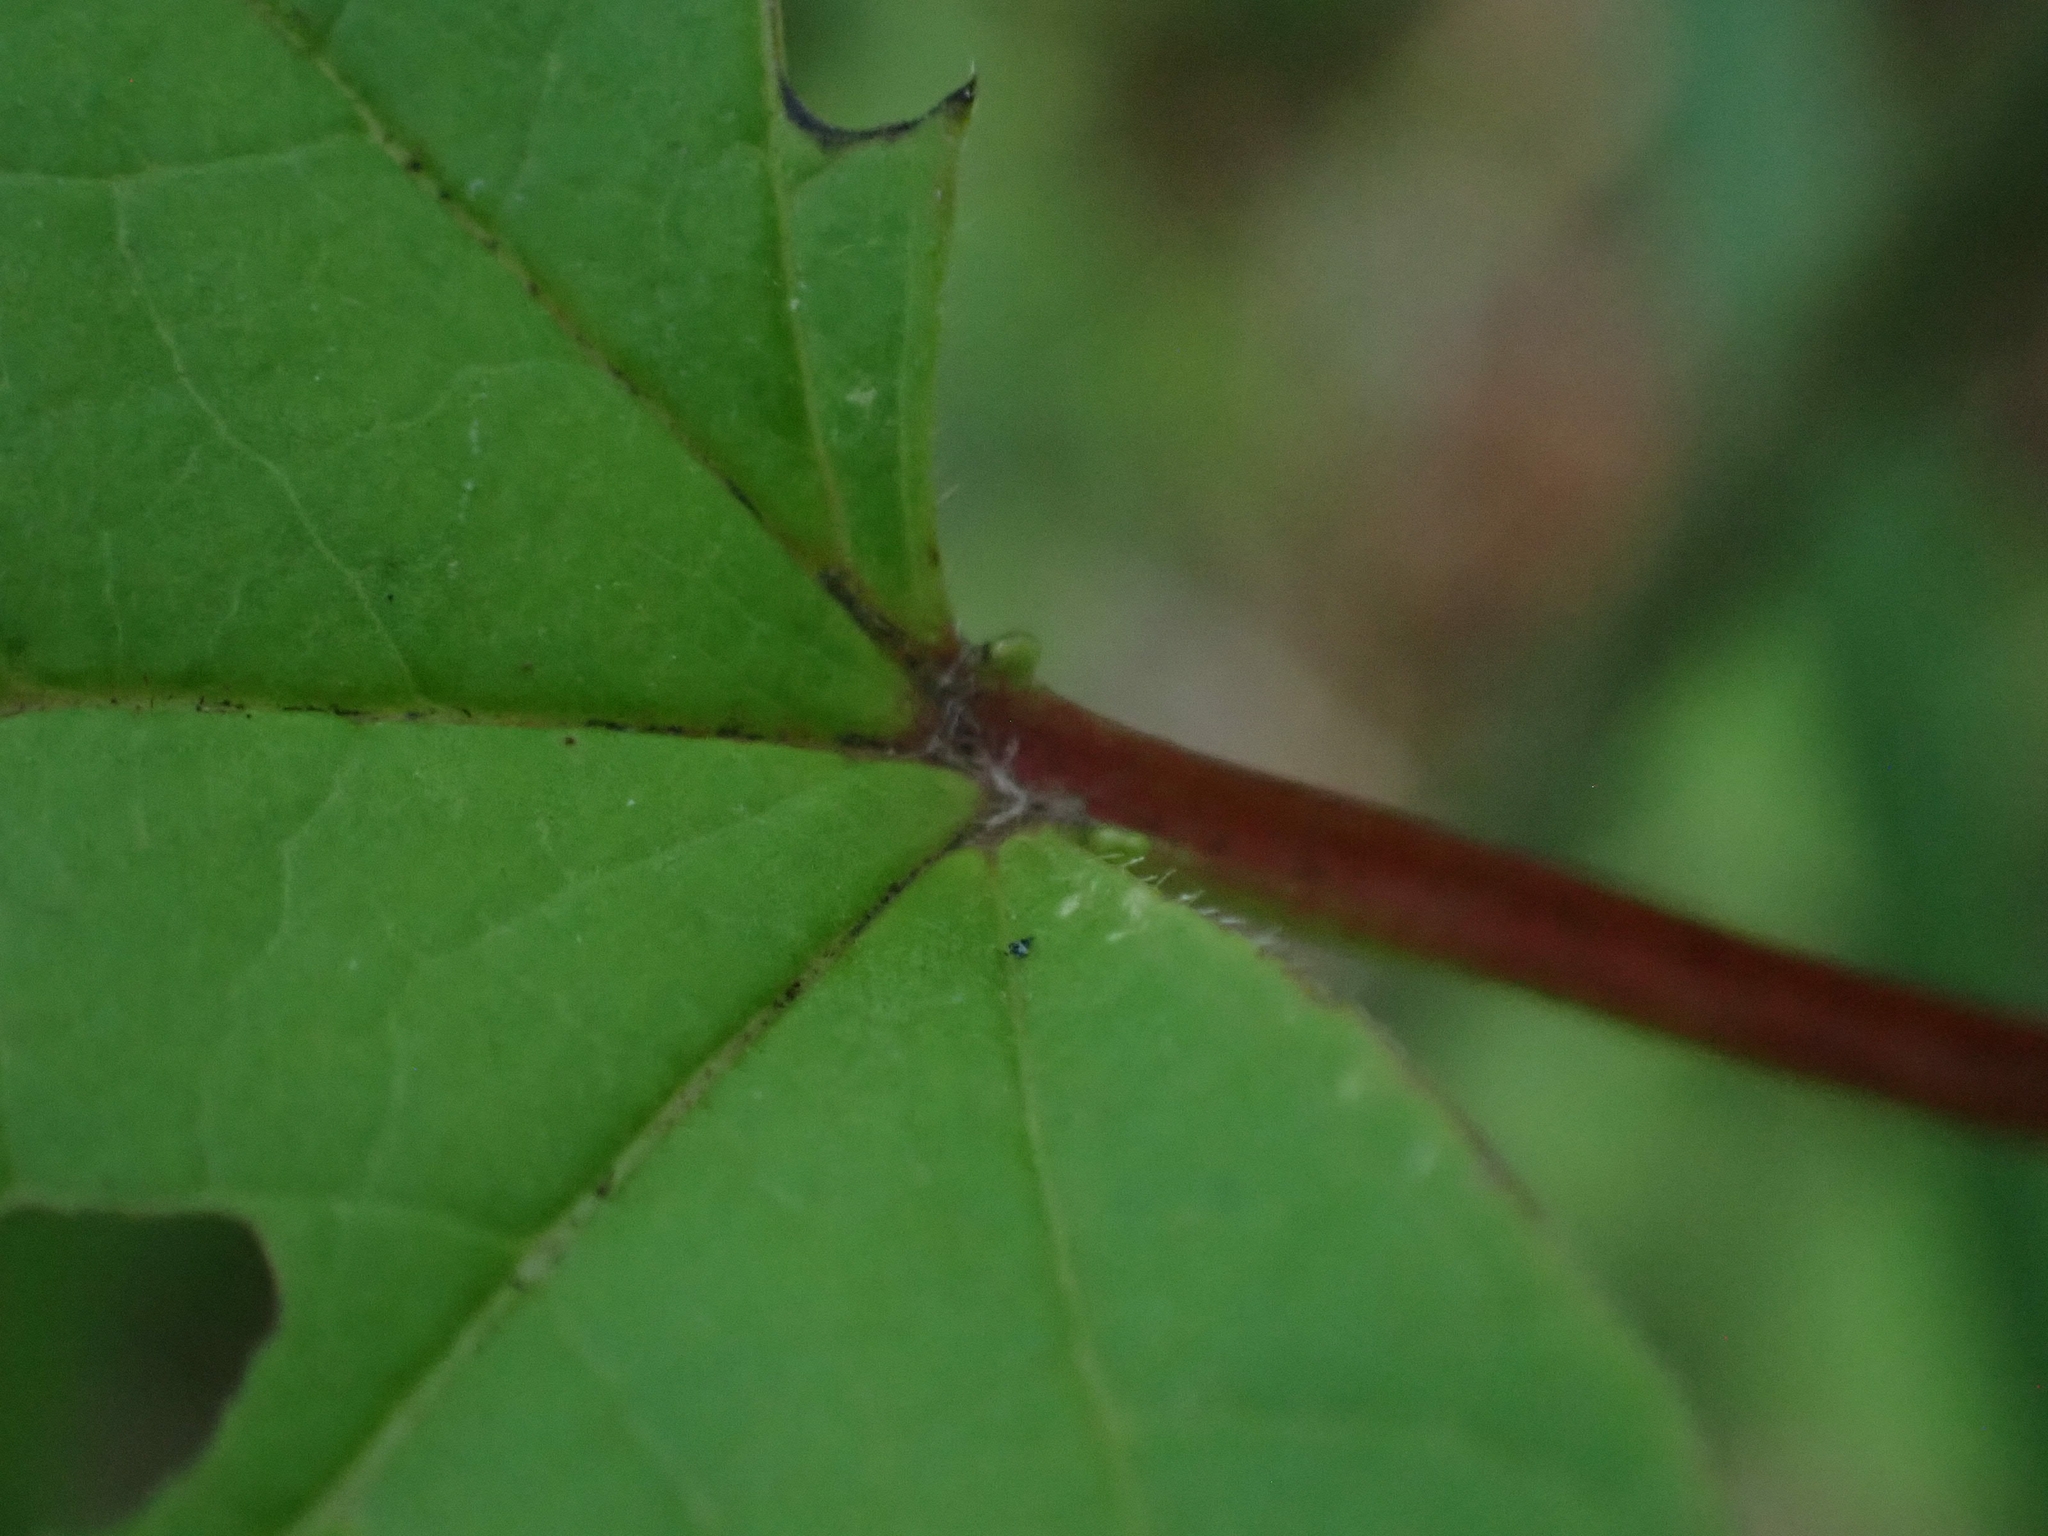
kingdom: Plantae
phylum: Tracheophyta
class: Magnoliopsida
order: Dipsacales
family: Viburnaceae
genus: Viburnum
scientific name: Viburnum trilobum
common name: American cranberrybush
